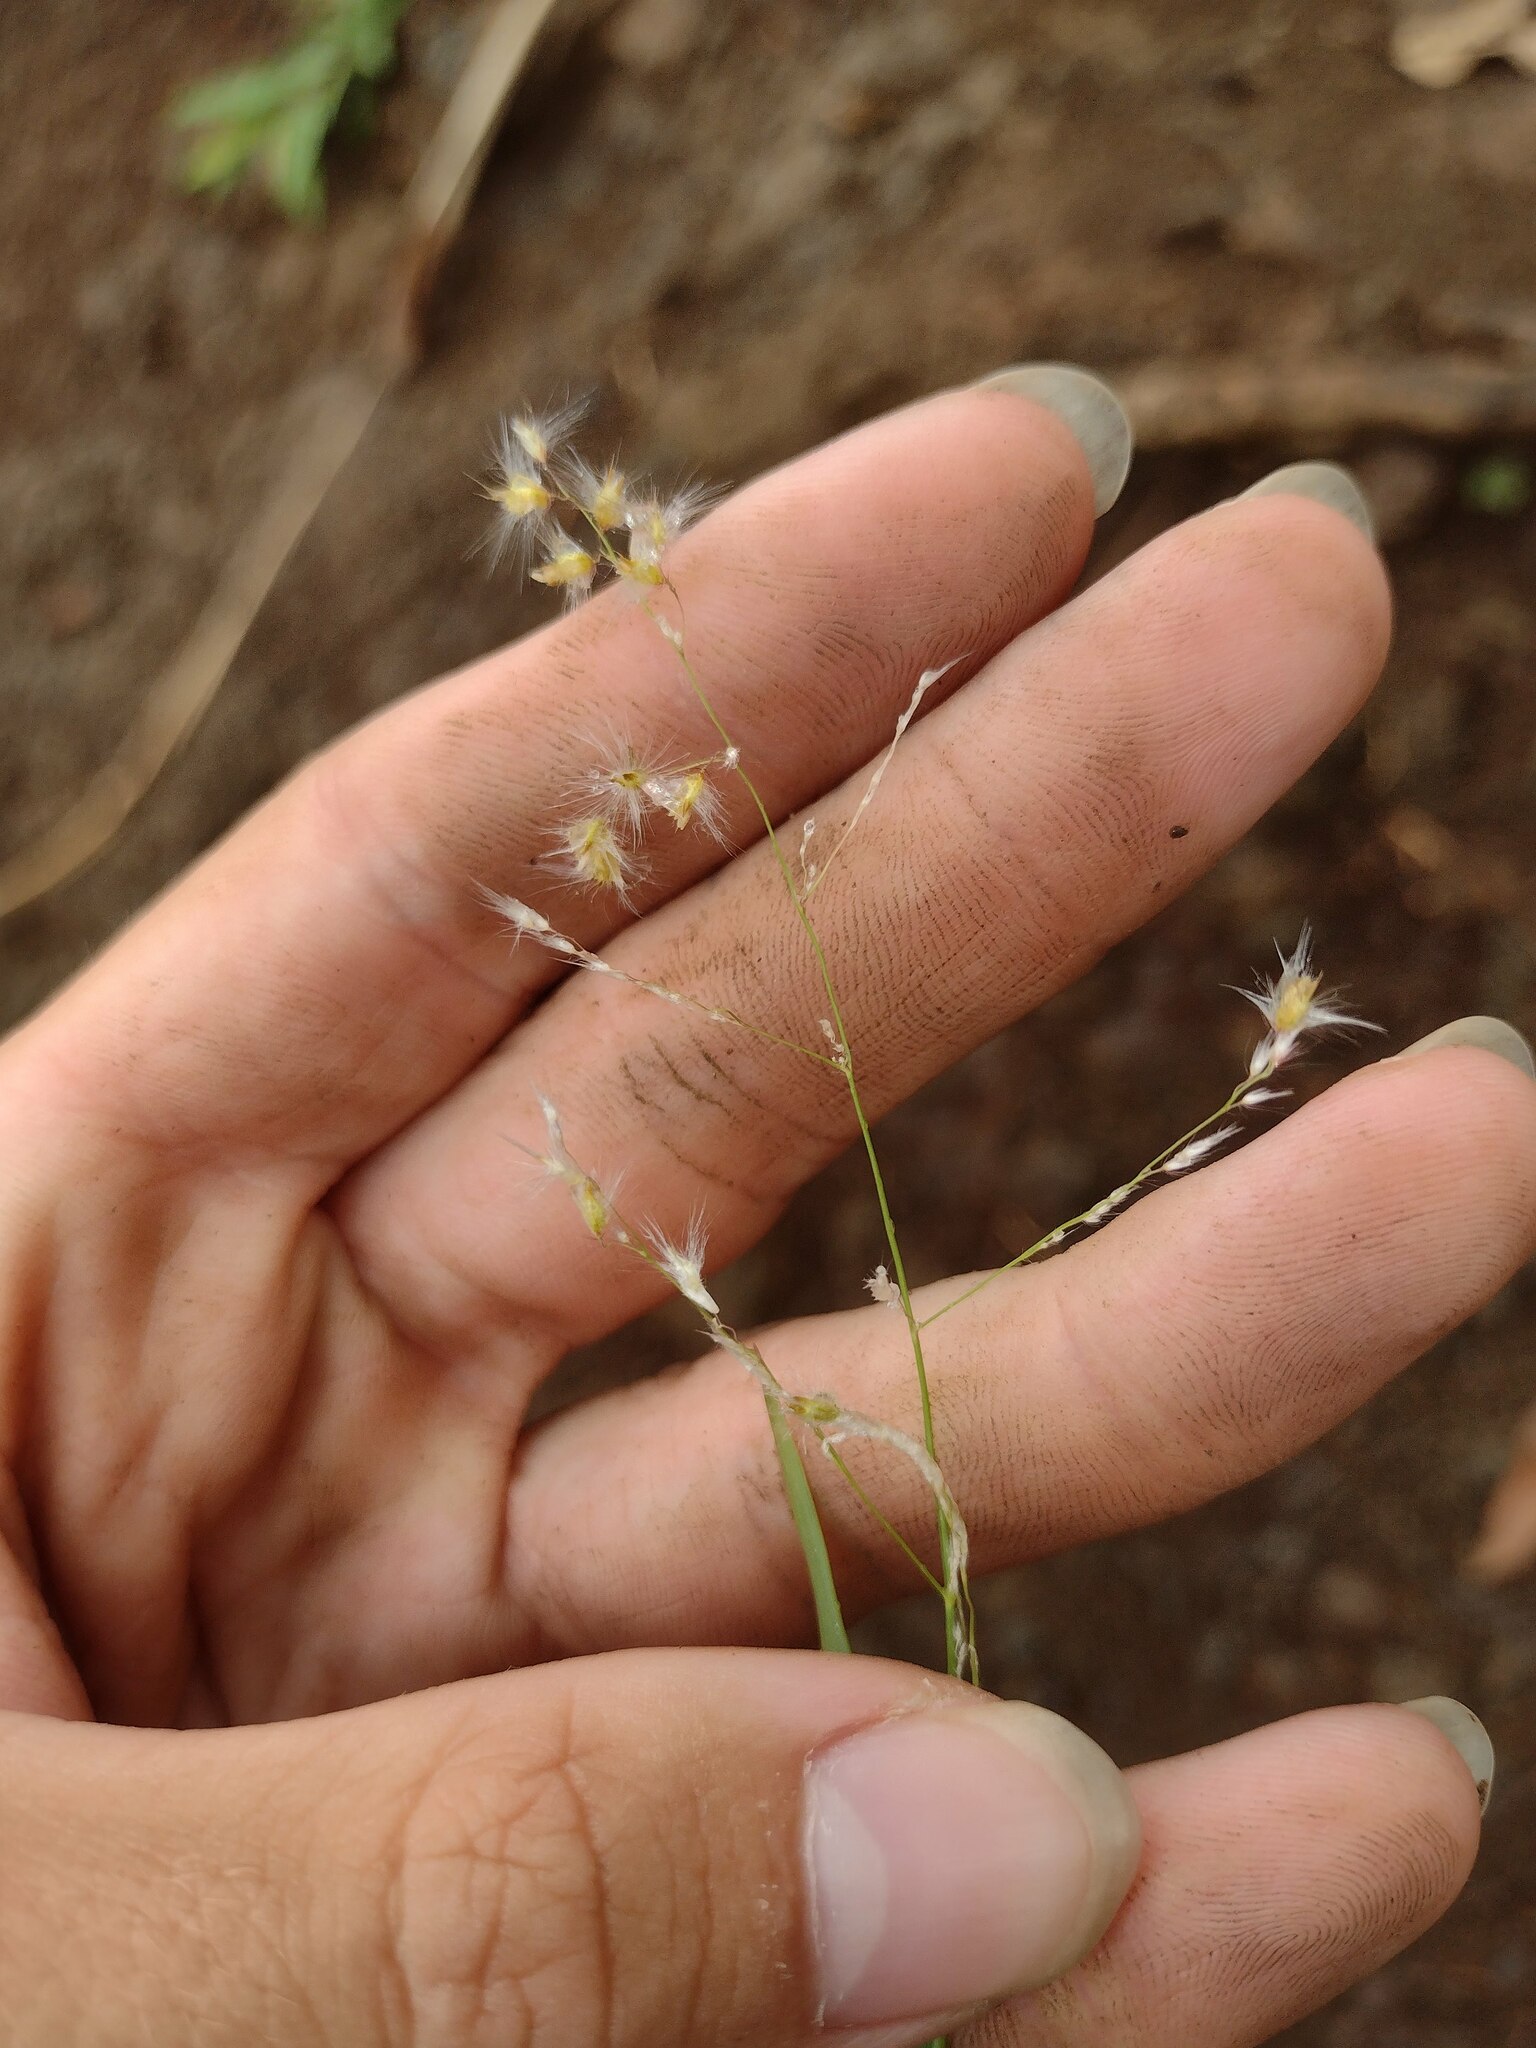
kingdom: Plantae
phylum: Tracheophyta
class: Liliopsida
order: Poales
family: Poaceae
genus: Melinis
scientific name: Melinis repens
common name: Rose natal grass
